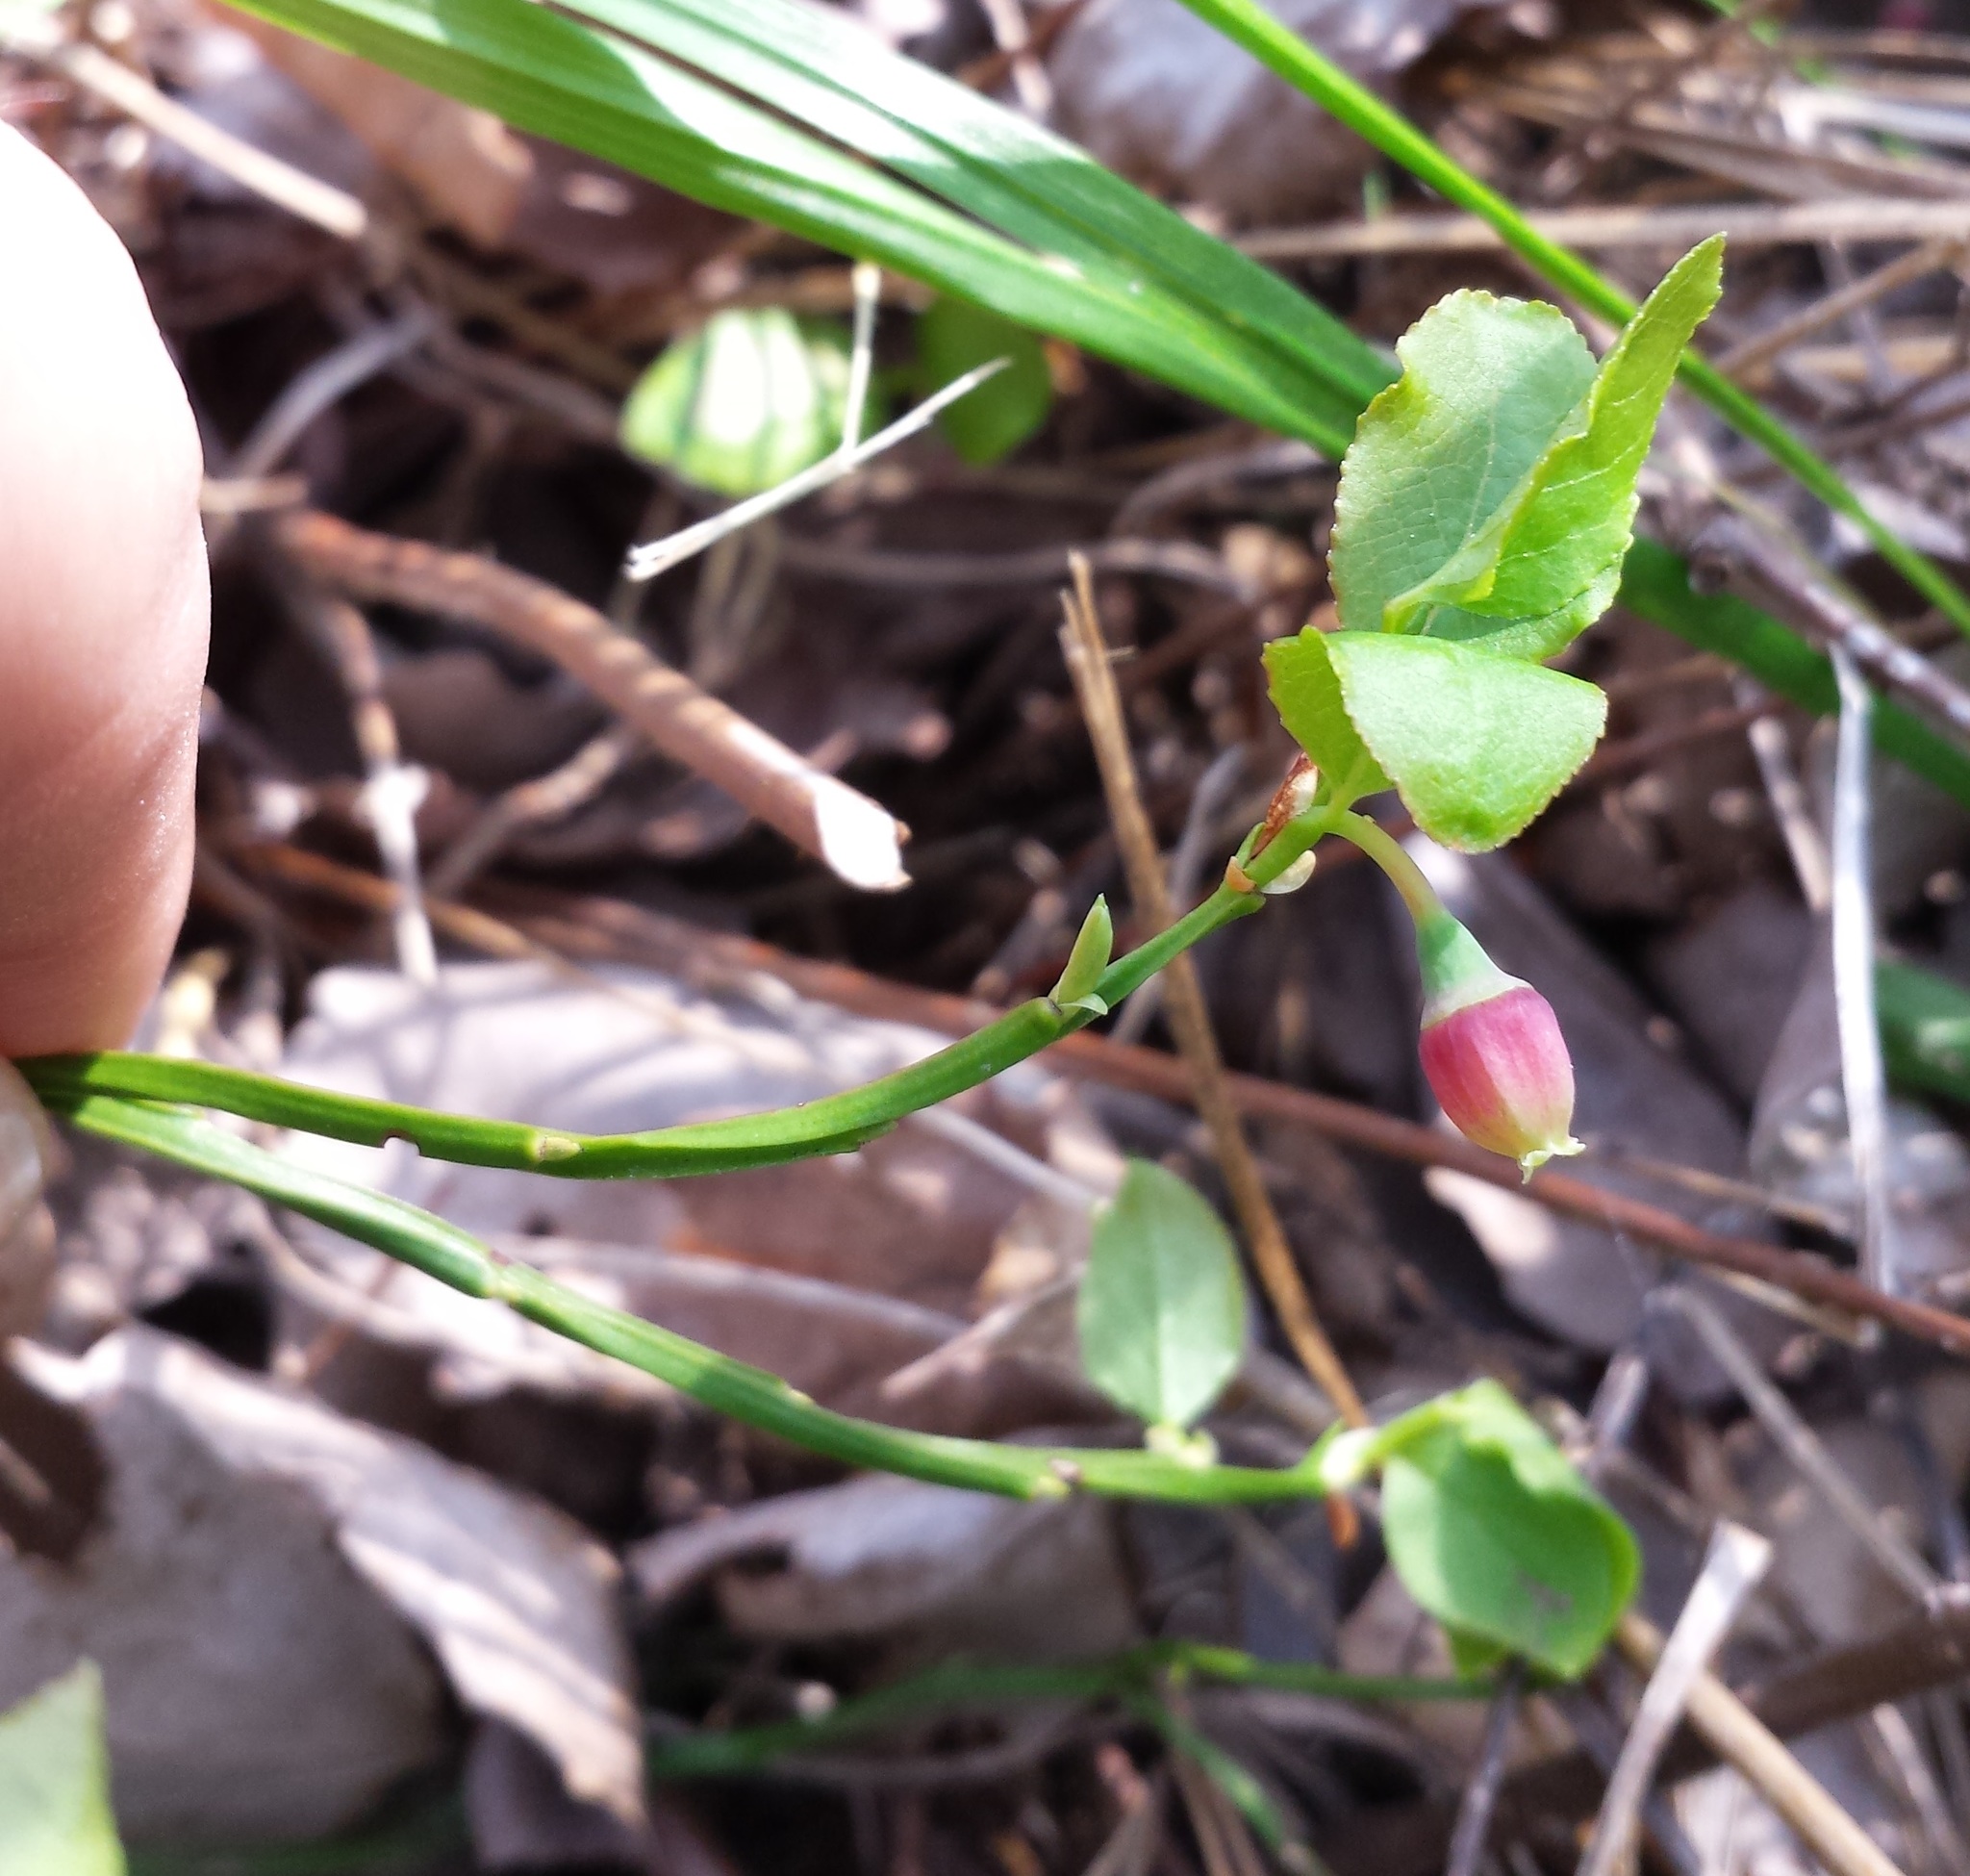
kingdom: Plantae
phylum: Tracheophyta
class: Magnoliopsida
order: Ericales
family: Ericaceae
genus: Vaccinium
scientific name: Vaccinium myrtillus
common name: Bilberry
